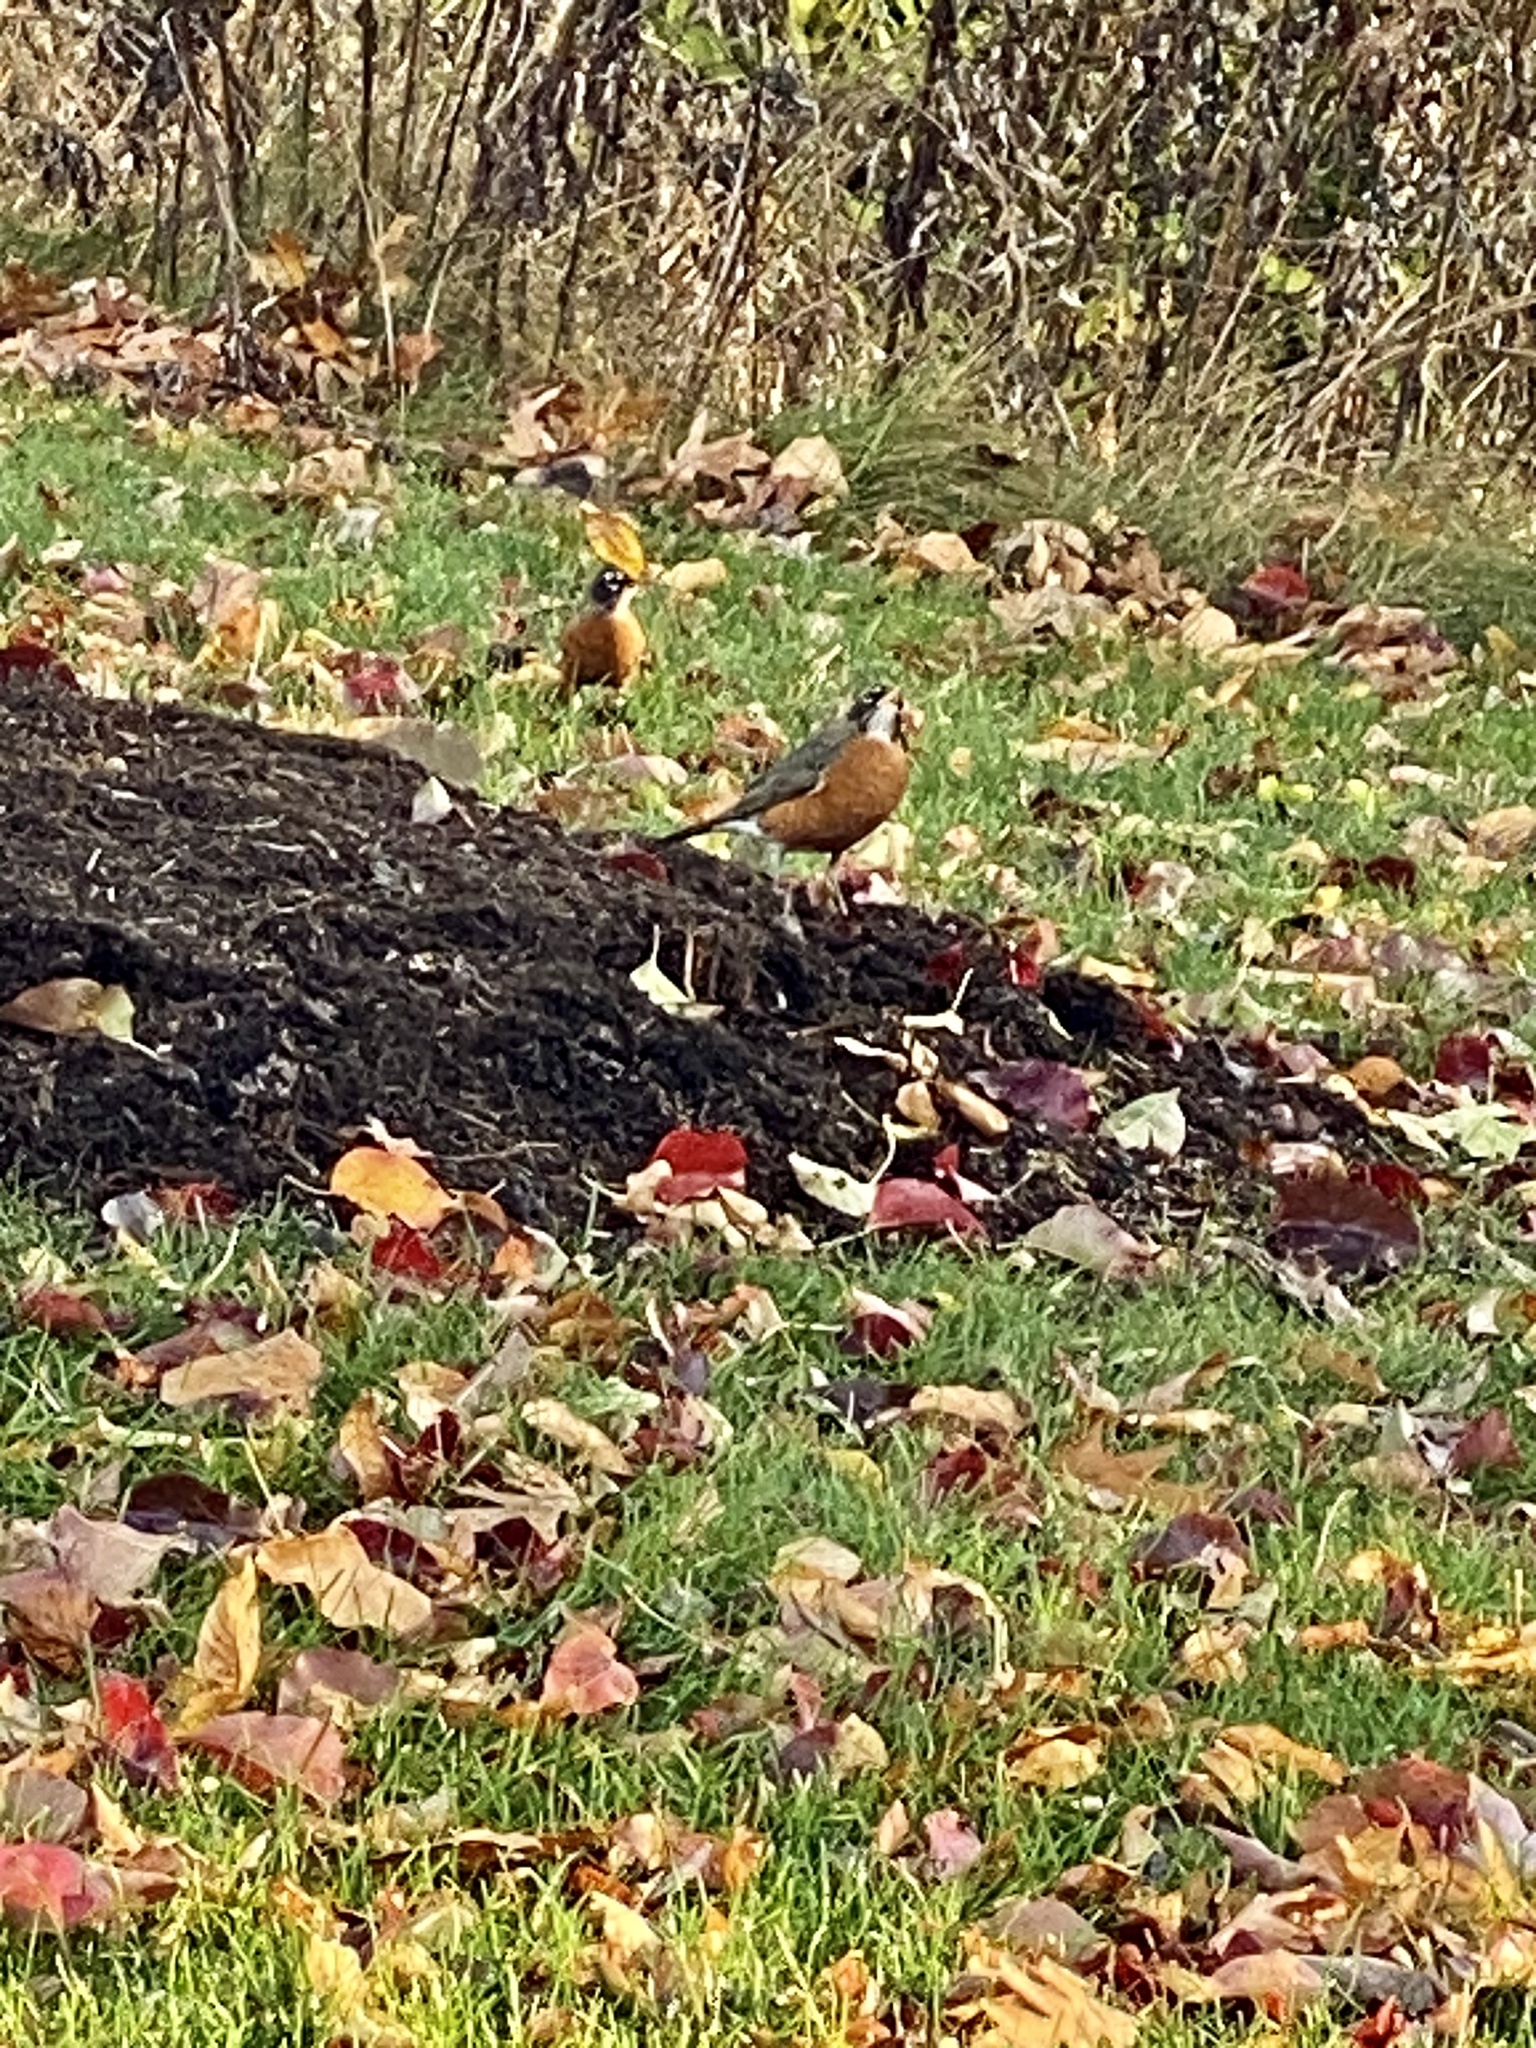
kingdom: Animalia
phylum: Chordata
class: Aves
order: Passeriformes
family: Turdidae
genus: Turdus
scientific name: Turdus migratorius
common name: American robin
